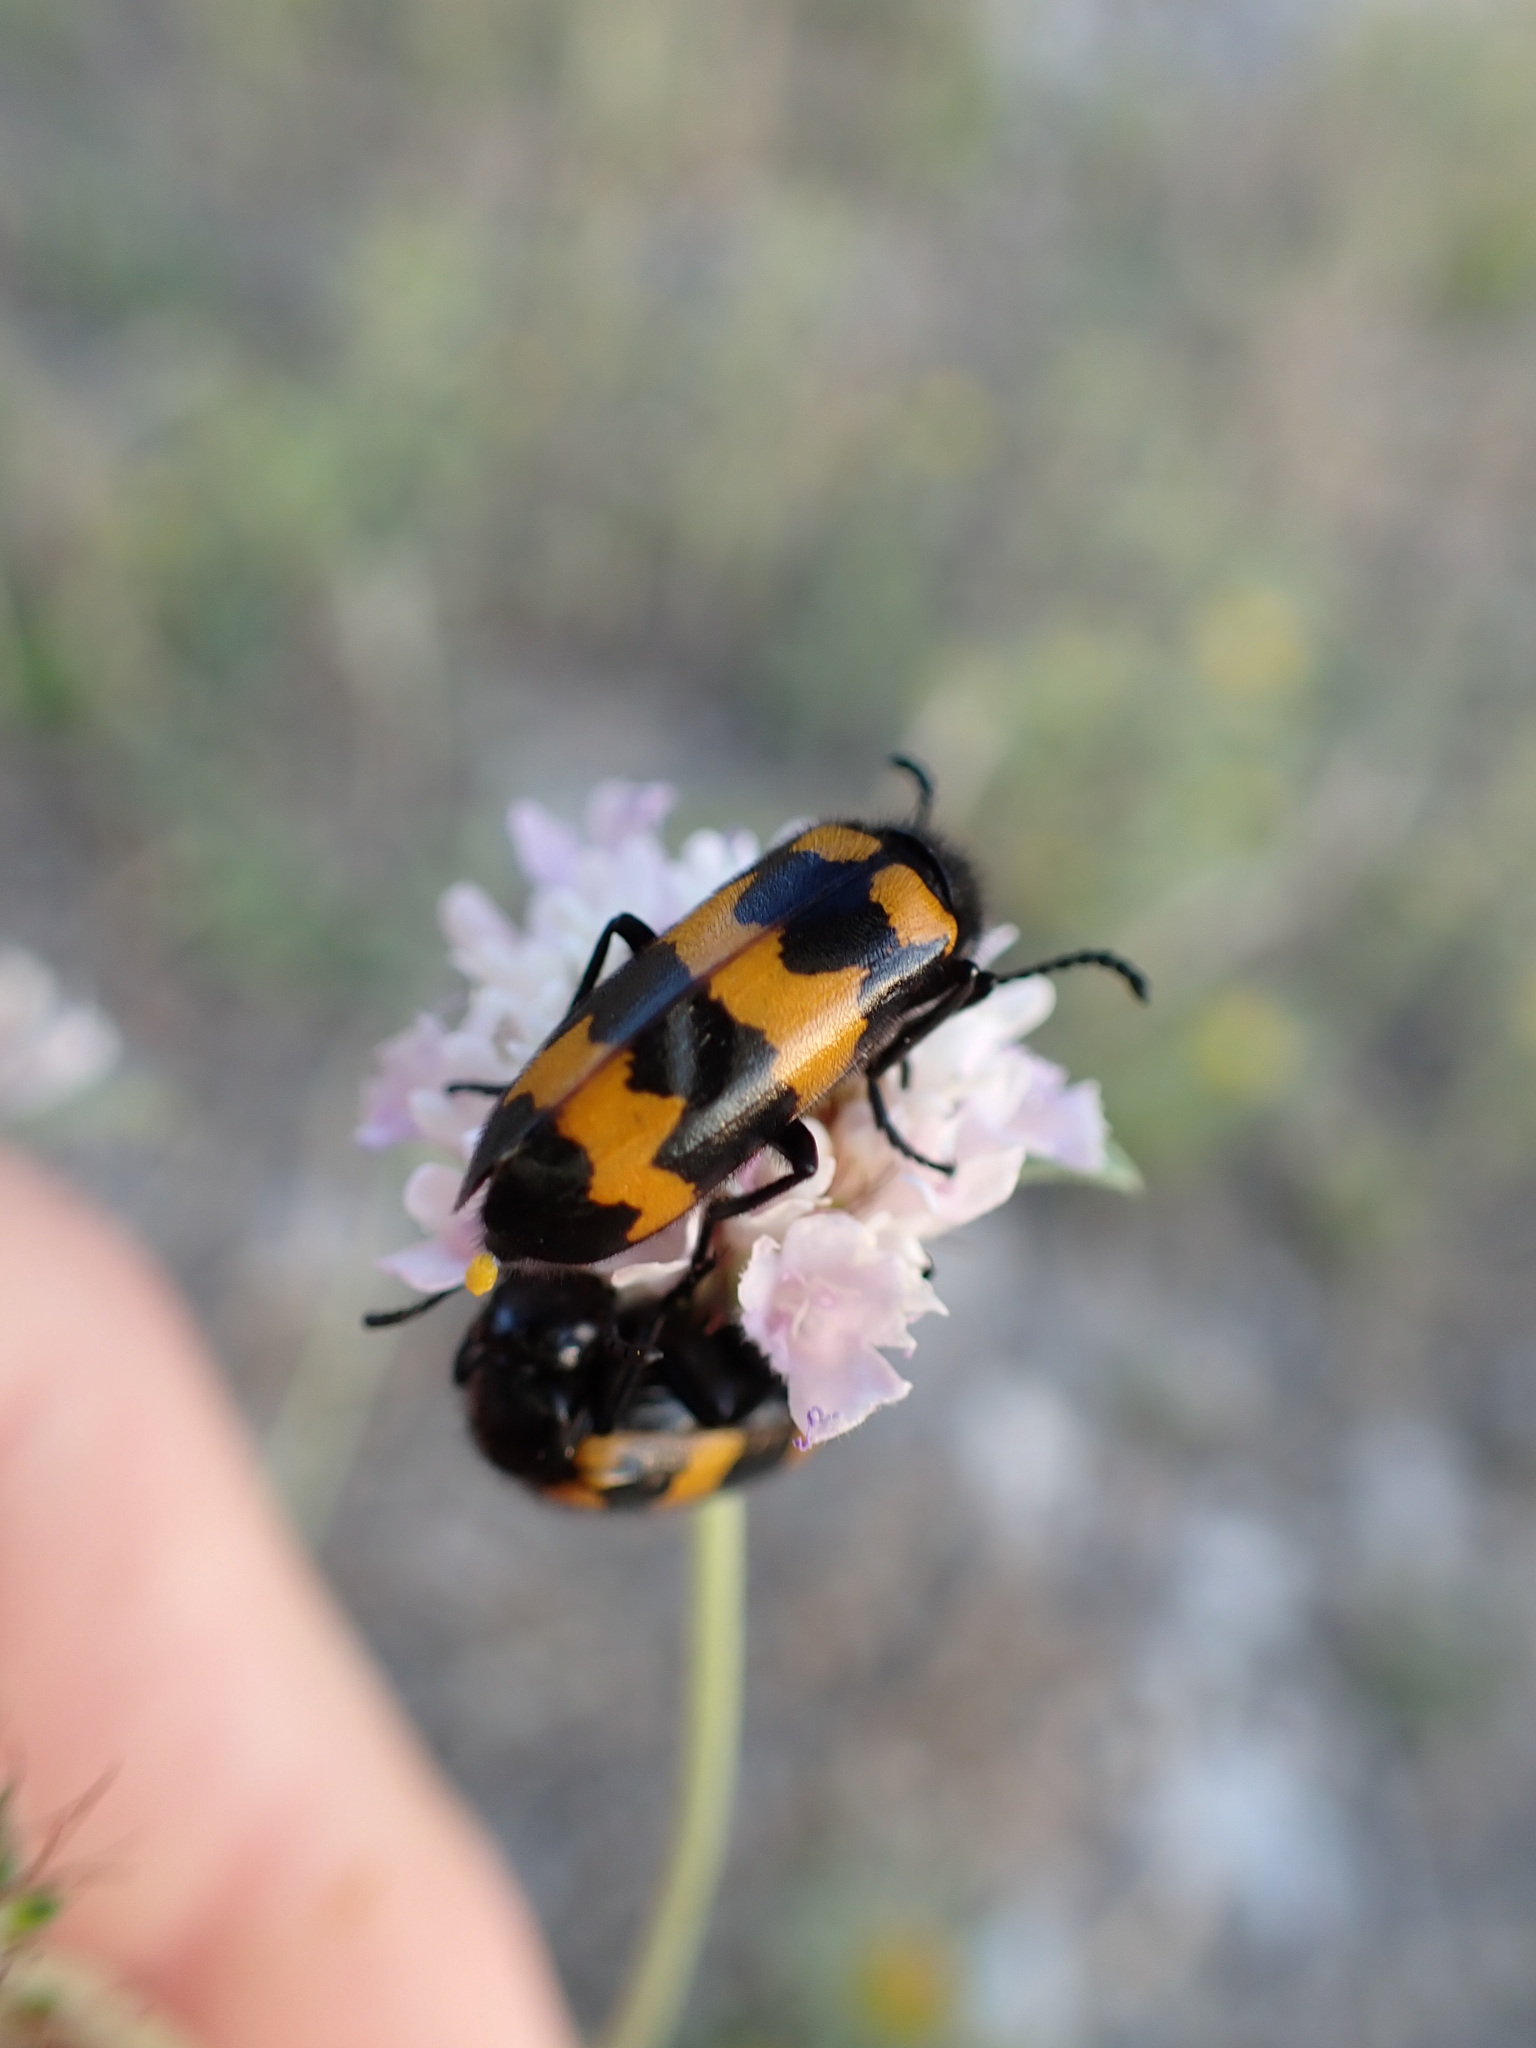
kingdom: Animalia
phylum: Arthropoda
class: Insecta
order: Coleoptera
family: Meloidae
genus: Mylabris
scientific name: Mylabris variabilis
